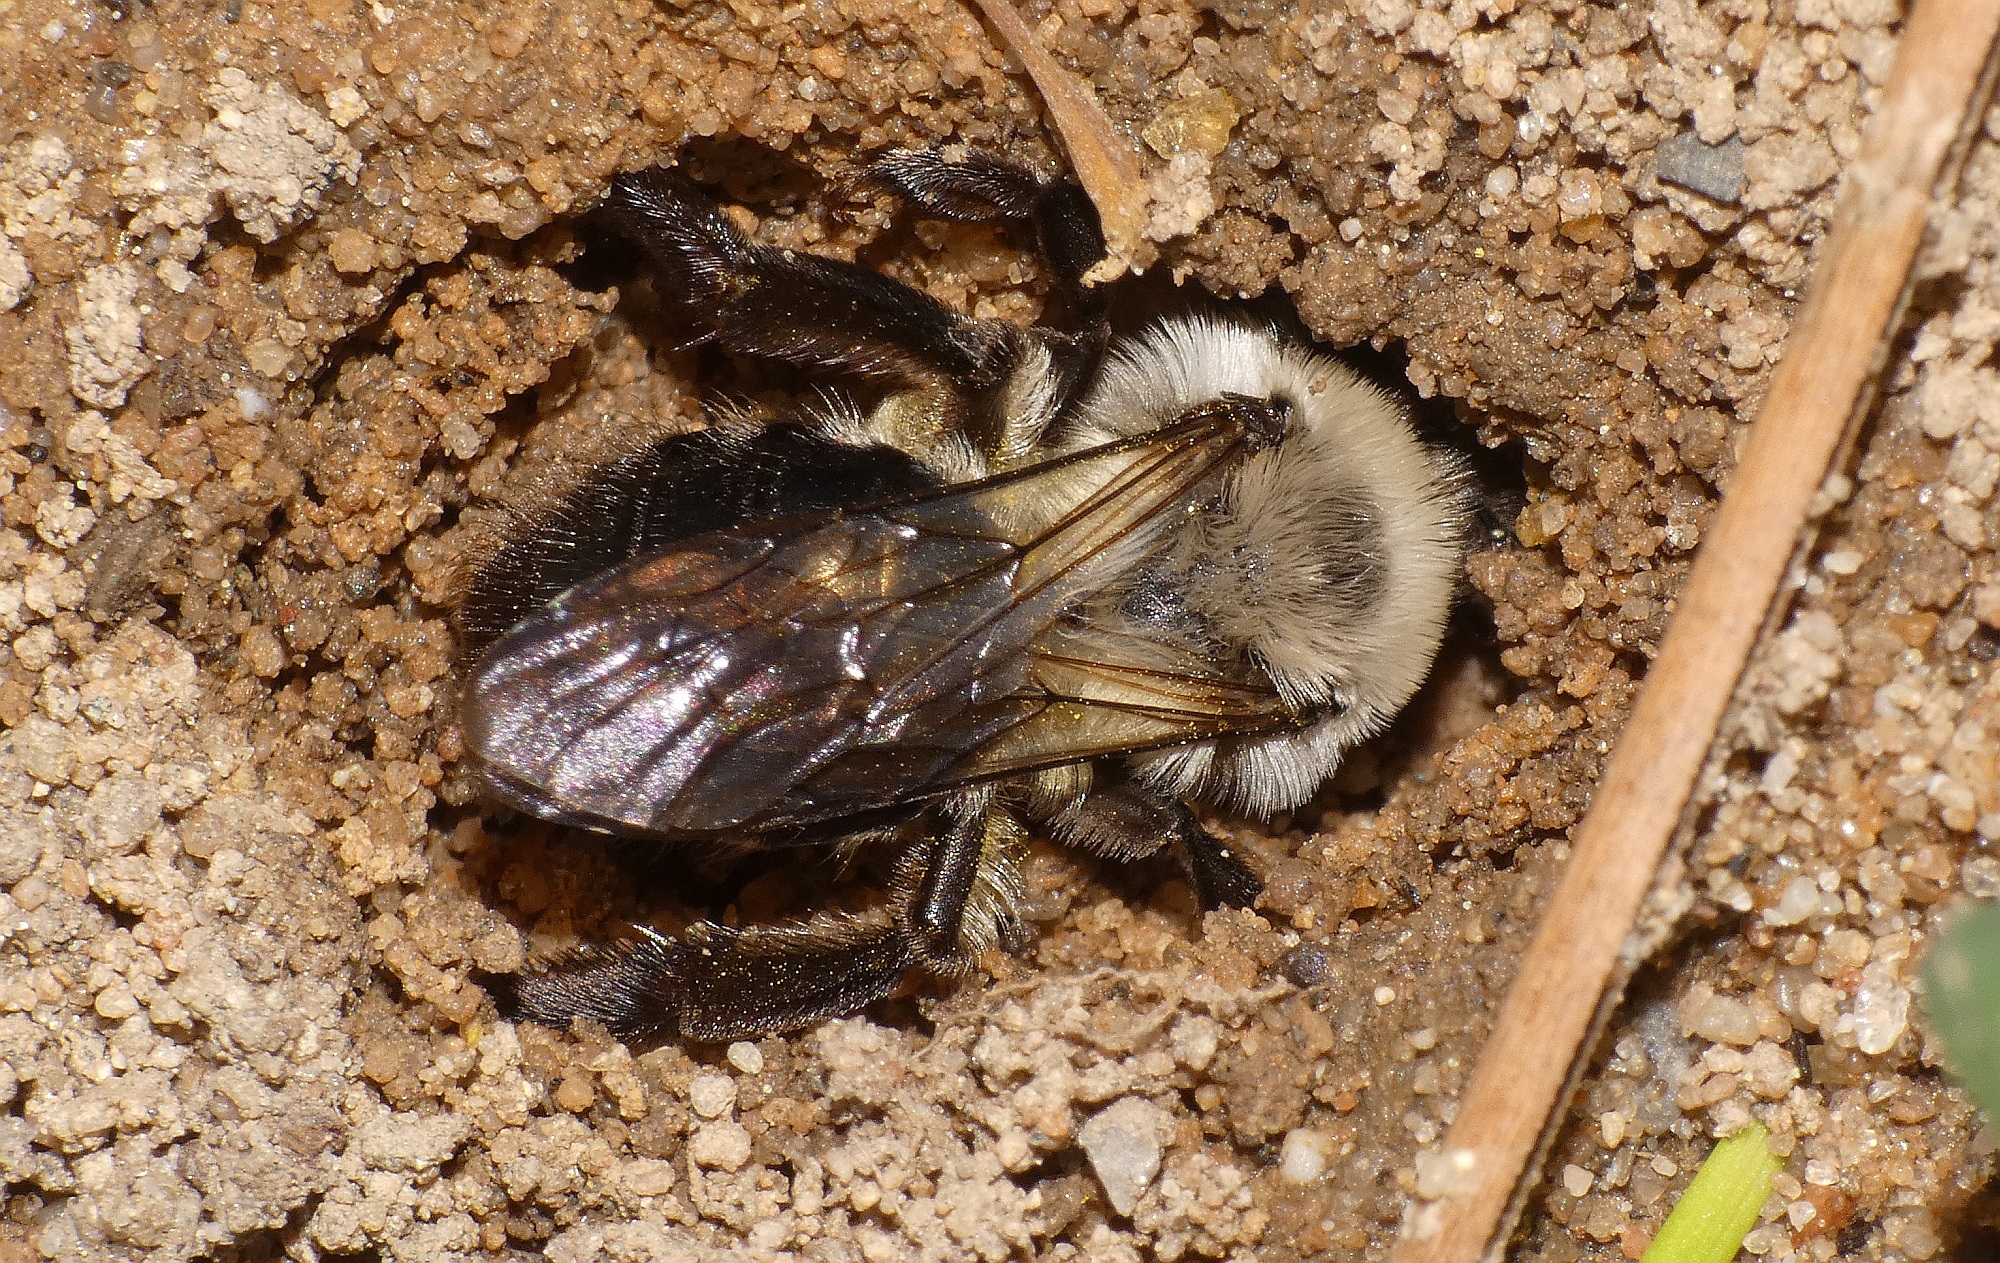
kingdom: Animalia
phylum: Arthropoda
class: Insecta
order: Hymenoptera
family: Andrenidae
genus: Andrena
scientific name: Andrena vaga
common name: Grey-backed mining bee
